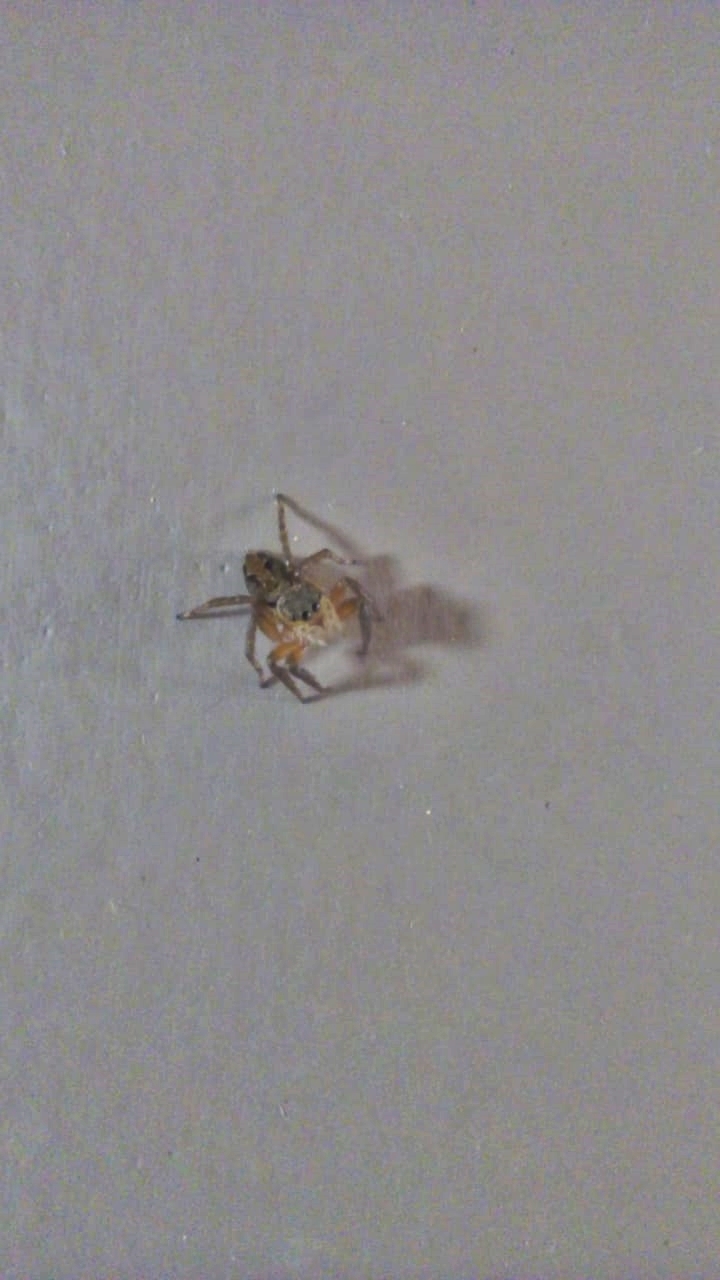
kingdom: Animalia
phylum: Arthropoda
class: Arachnida
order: Araneae
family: Salticidae
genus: Hasarius
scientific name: Hasarius adansoni
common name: Jumping spider
